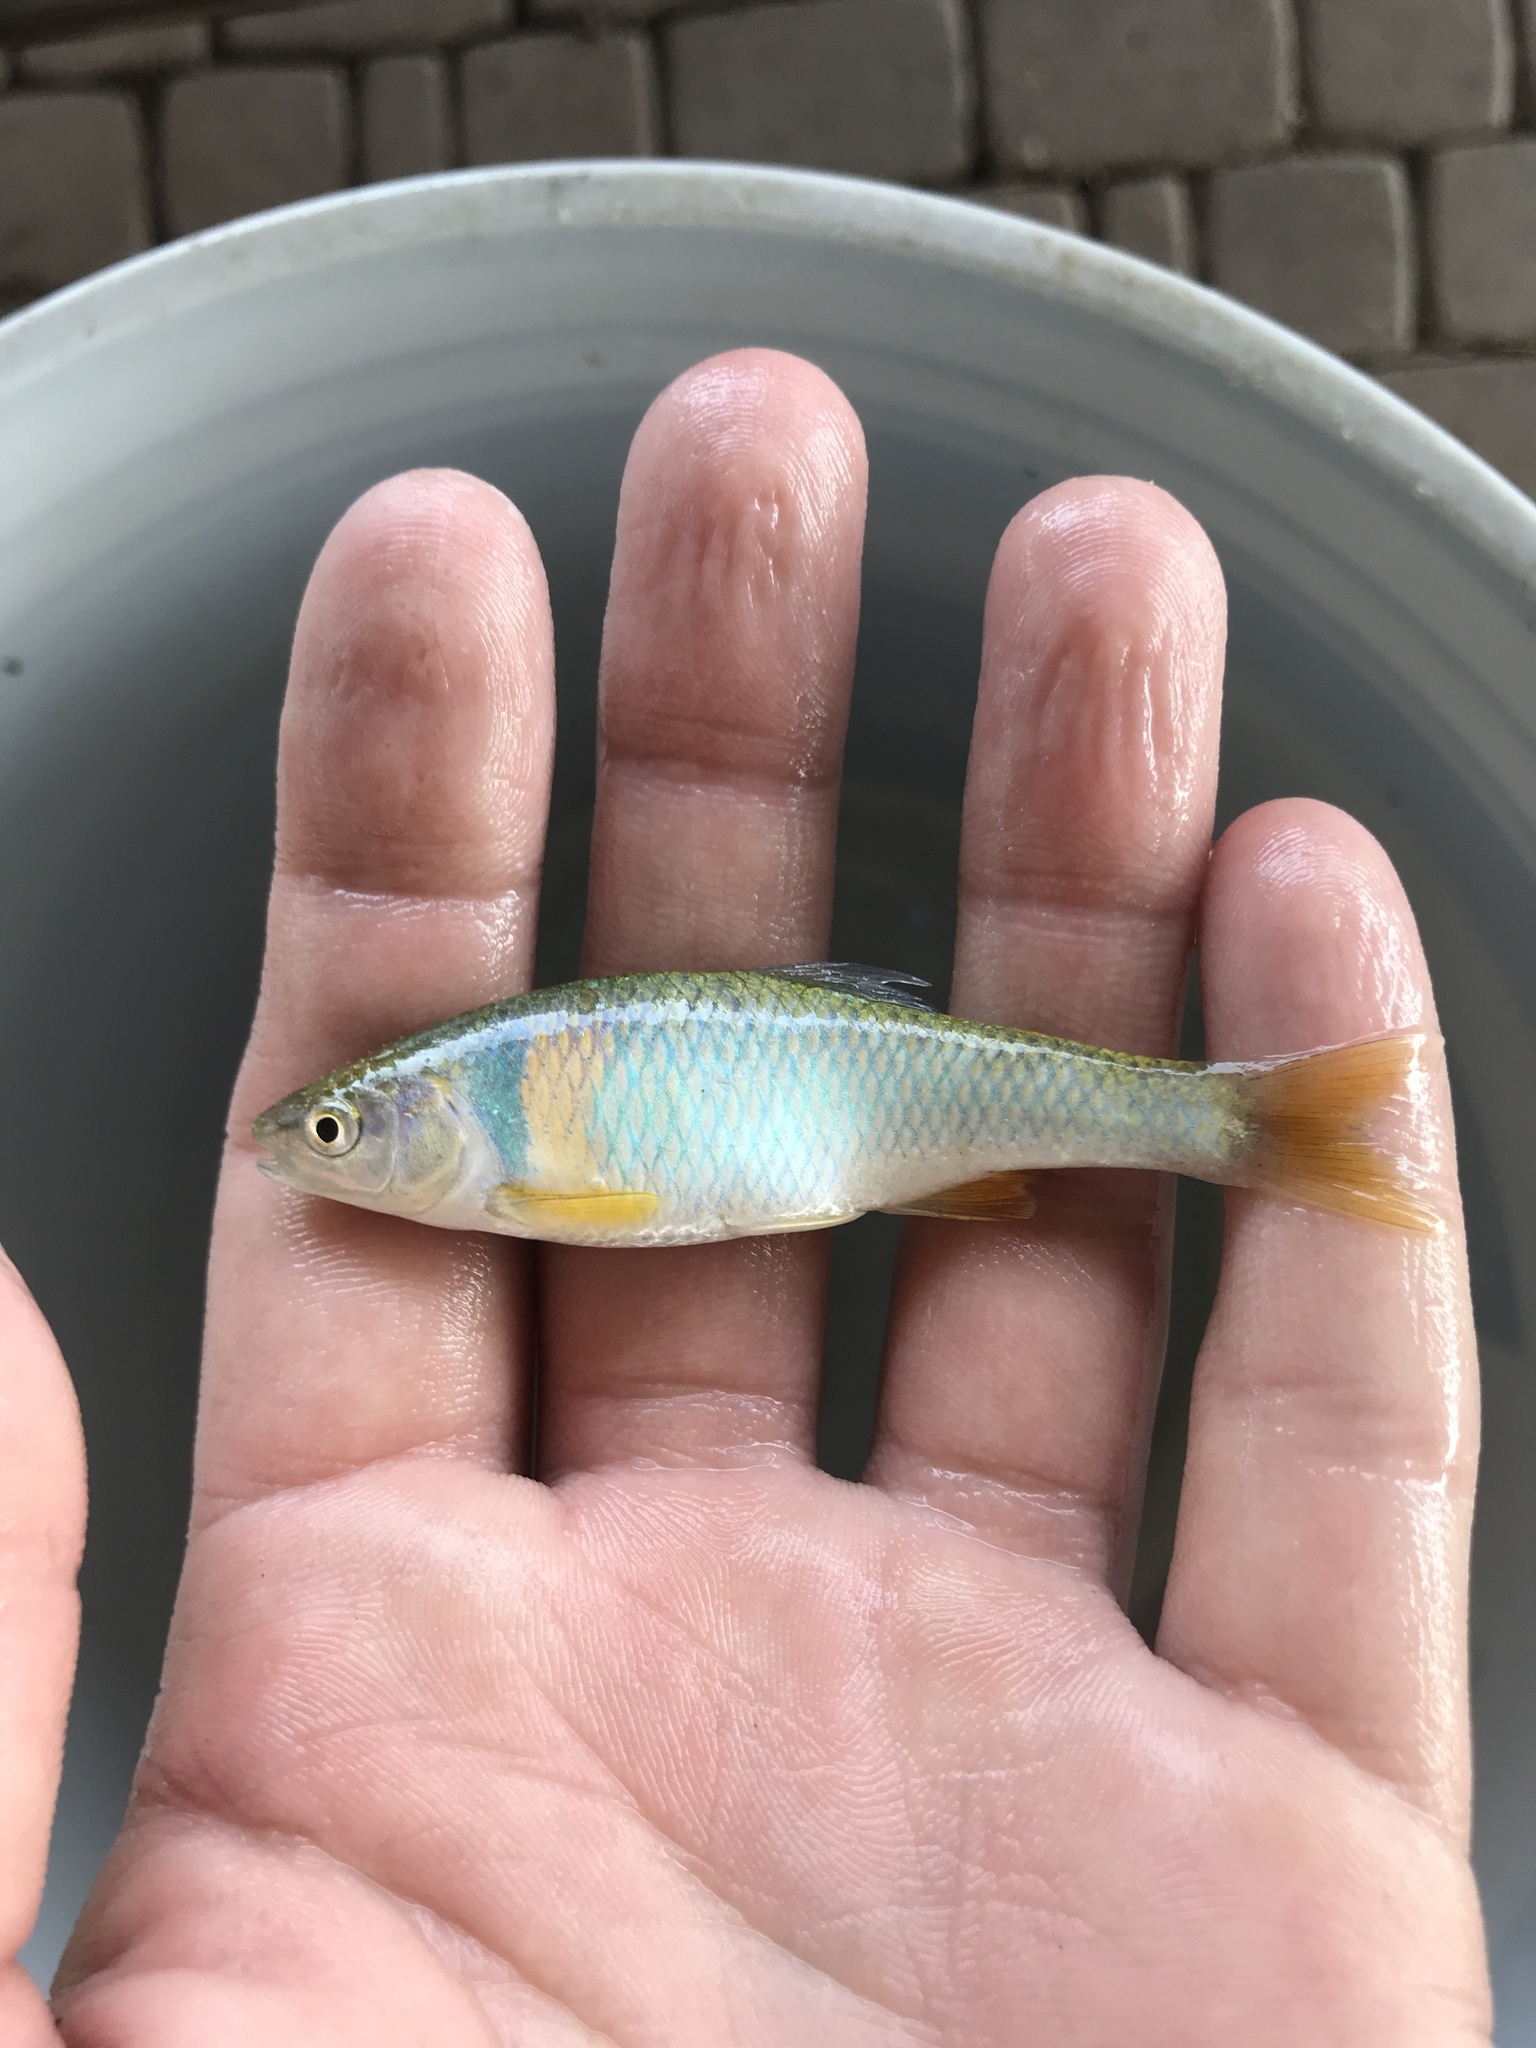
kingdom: Animalia
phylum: Chordata
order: Cypriniformes
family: Cyprinidae
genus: Cyprinella
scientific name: Cyprinella lutrensis
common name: Red shiner
